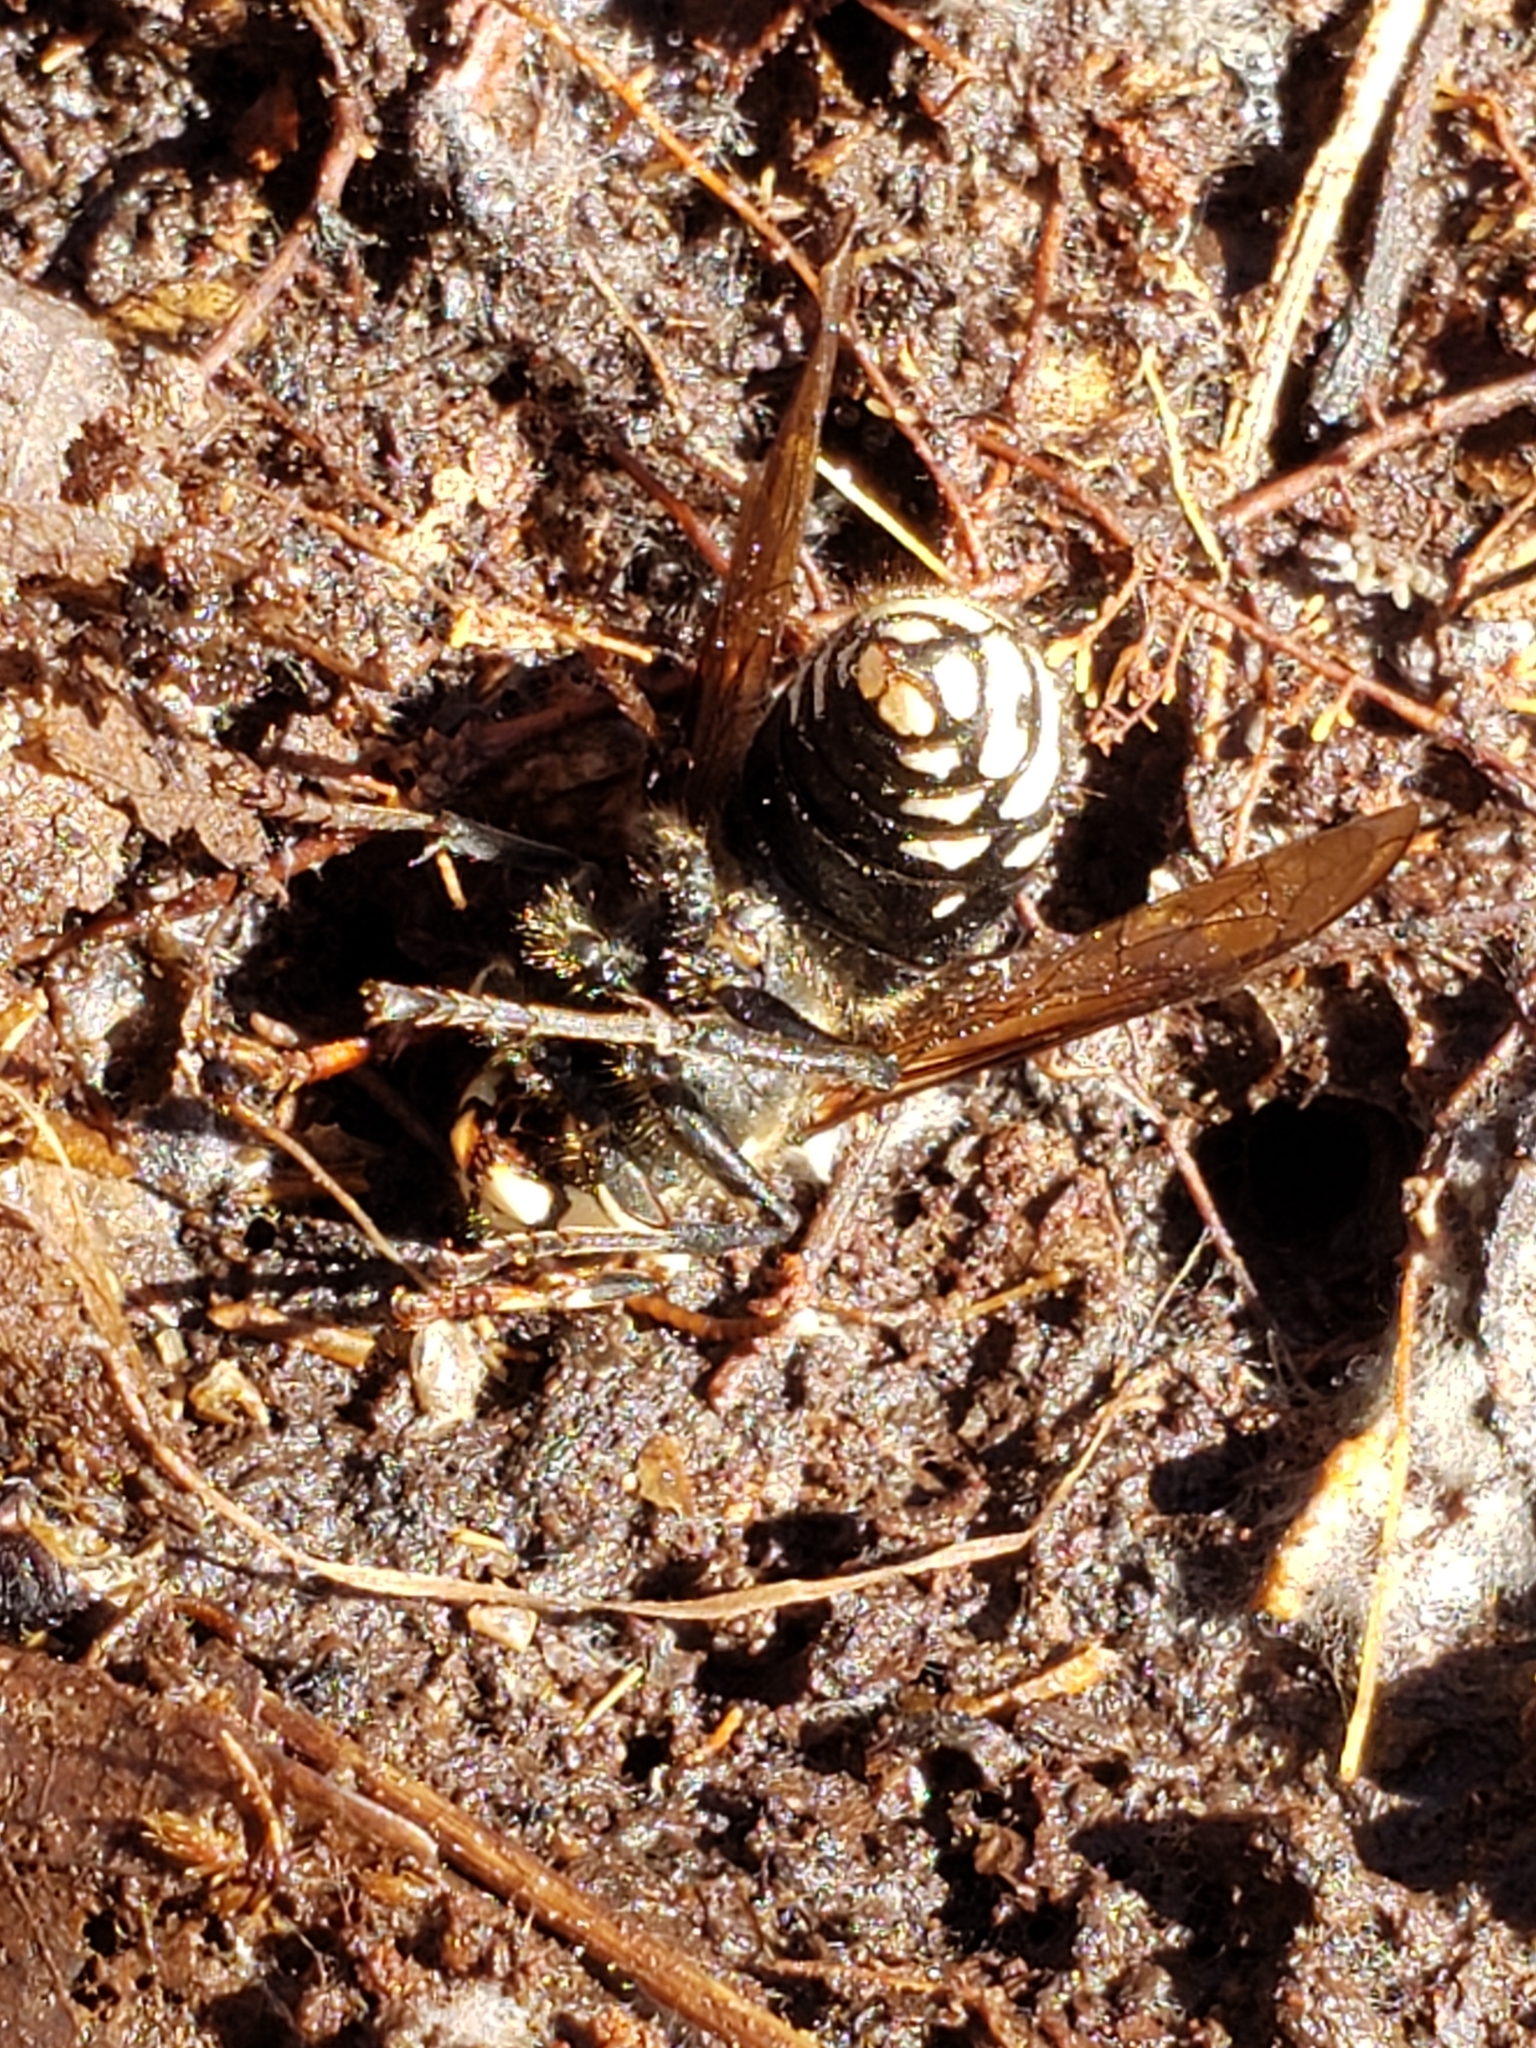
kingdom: Animalia
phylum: Arthropoda
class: Insecta
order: Hymenoptera
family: Vespidae
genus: Dolichovespula
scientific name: Dolichovespula maculata
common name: Bald-faced hornet
